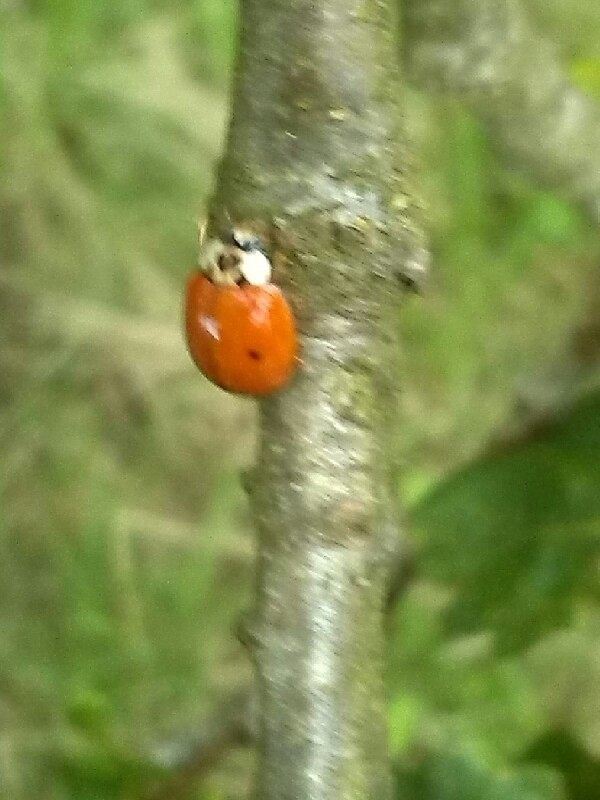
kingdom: Animalia
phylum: Arthropoda
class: Insecta
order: Coleoptera
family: Coccinellidae
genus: Harmonia
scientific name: Harmonia axyridis
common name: Harlequin ladybird
